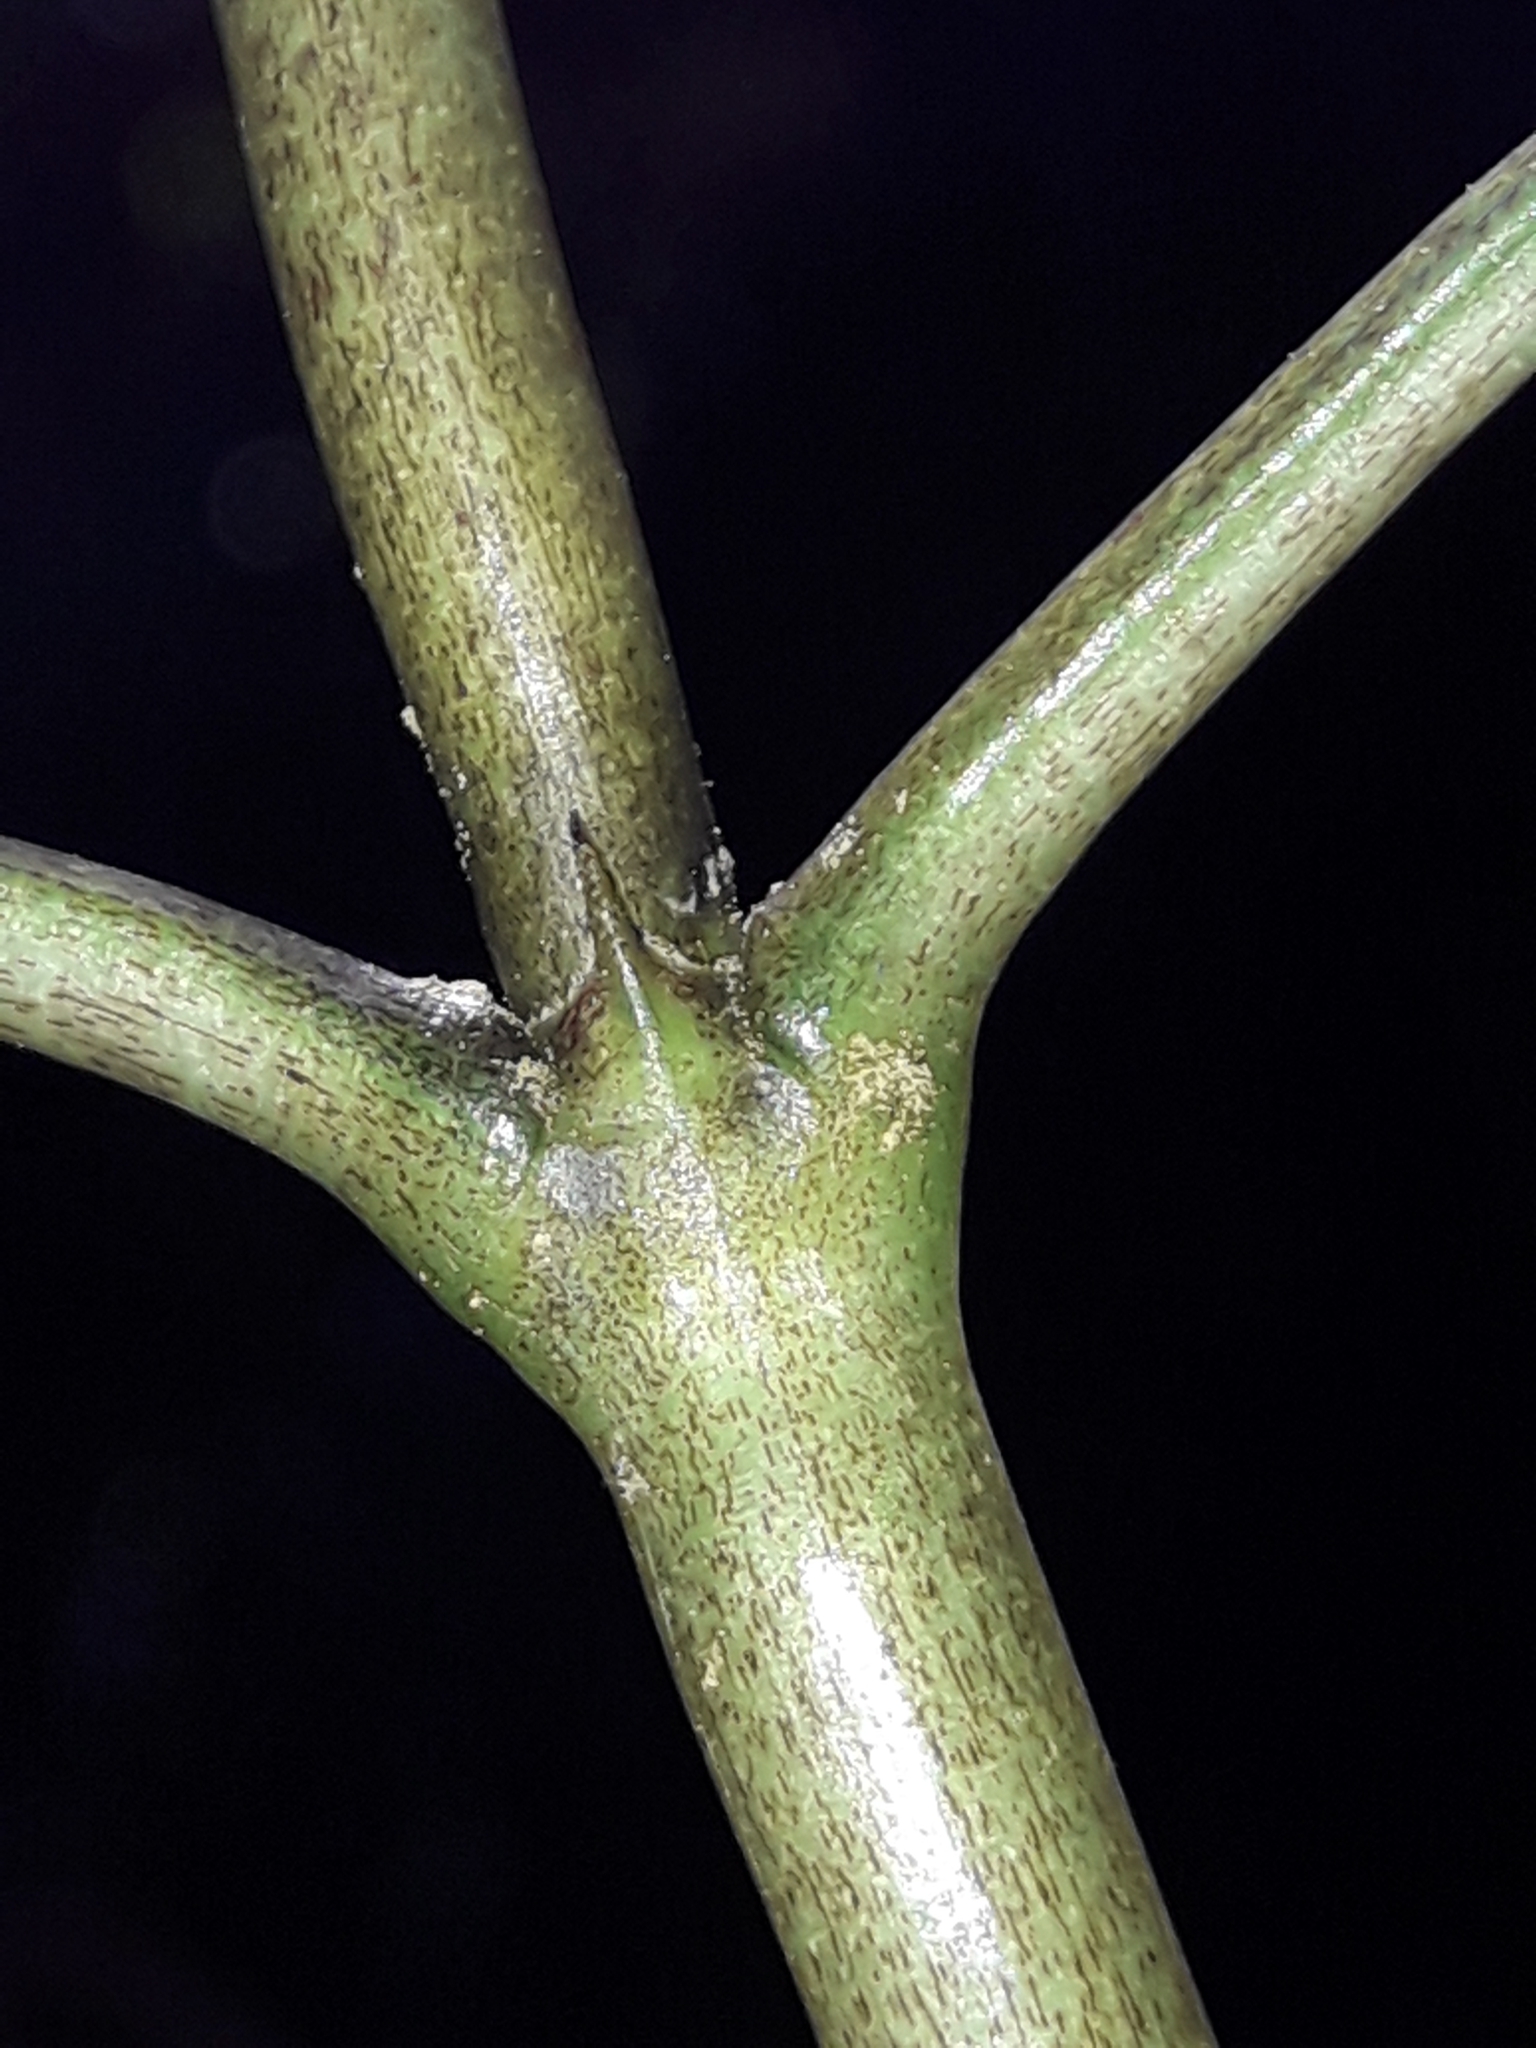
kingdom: Plantae
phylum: Tracheophyta
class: Magnoliopsida
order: Gentianales
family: Rubiaceae
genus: Coprosma
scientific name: Coprosma lucida
